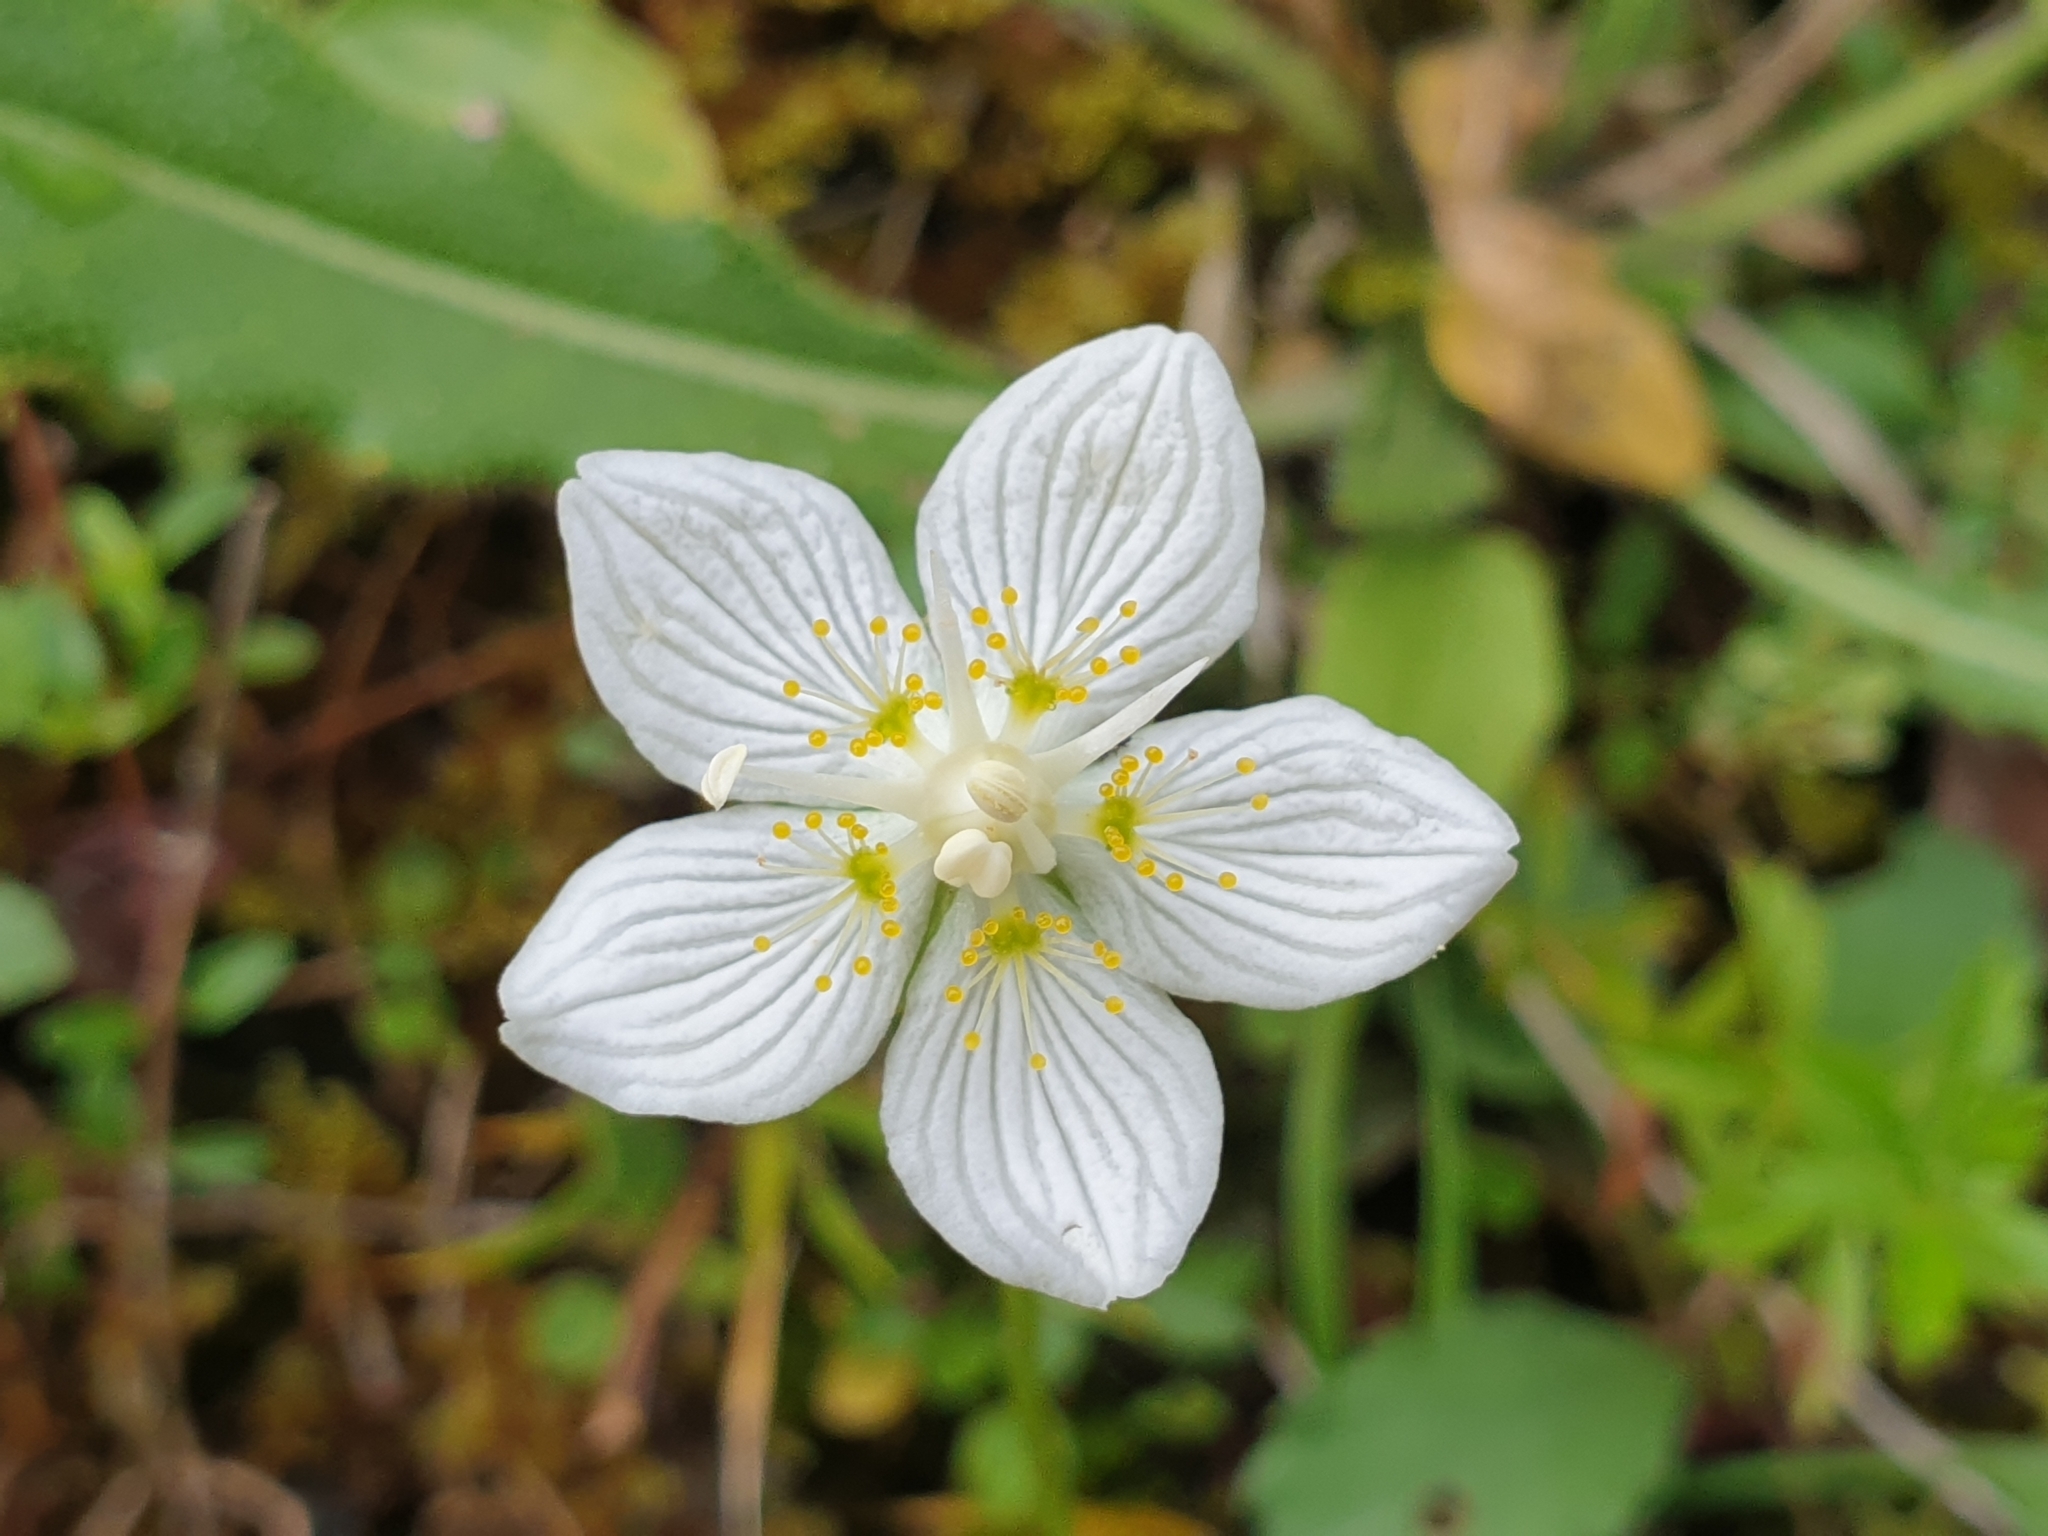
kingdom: Plantae
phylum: Tracheophyta
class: Magnoliopsida
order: Celastrales
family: Parnassiaceae
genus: Parnassia
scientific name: Parnassia palustris
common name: Grass-of-parnassus
